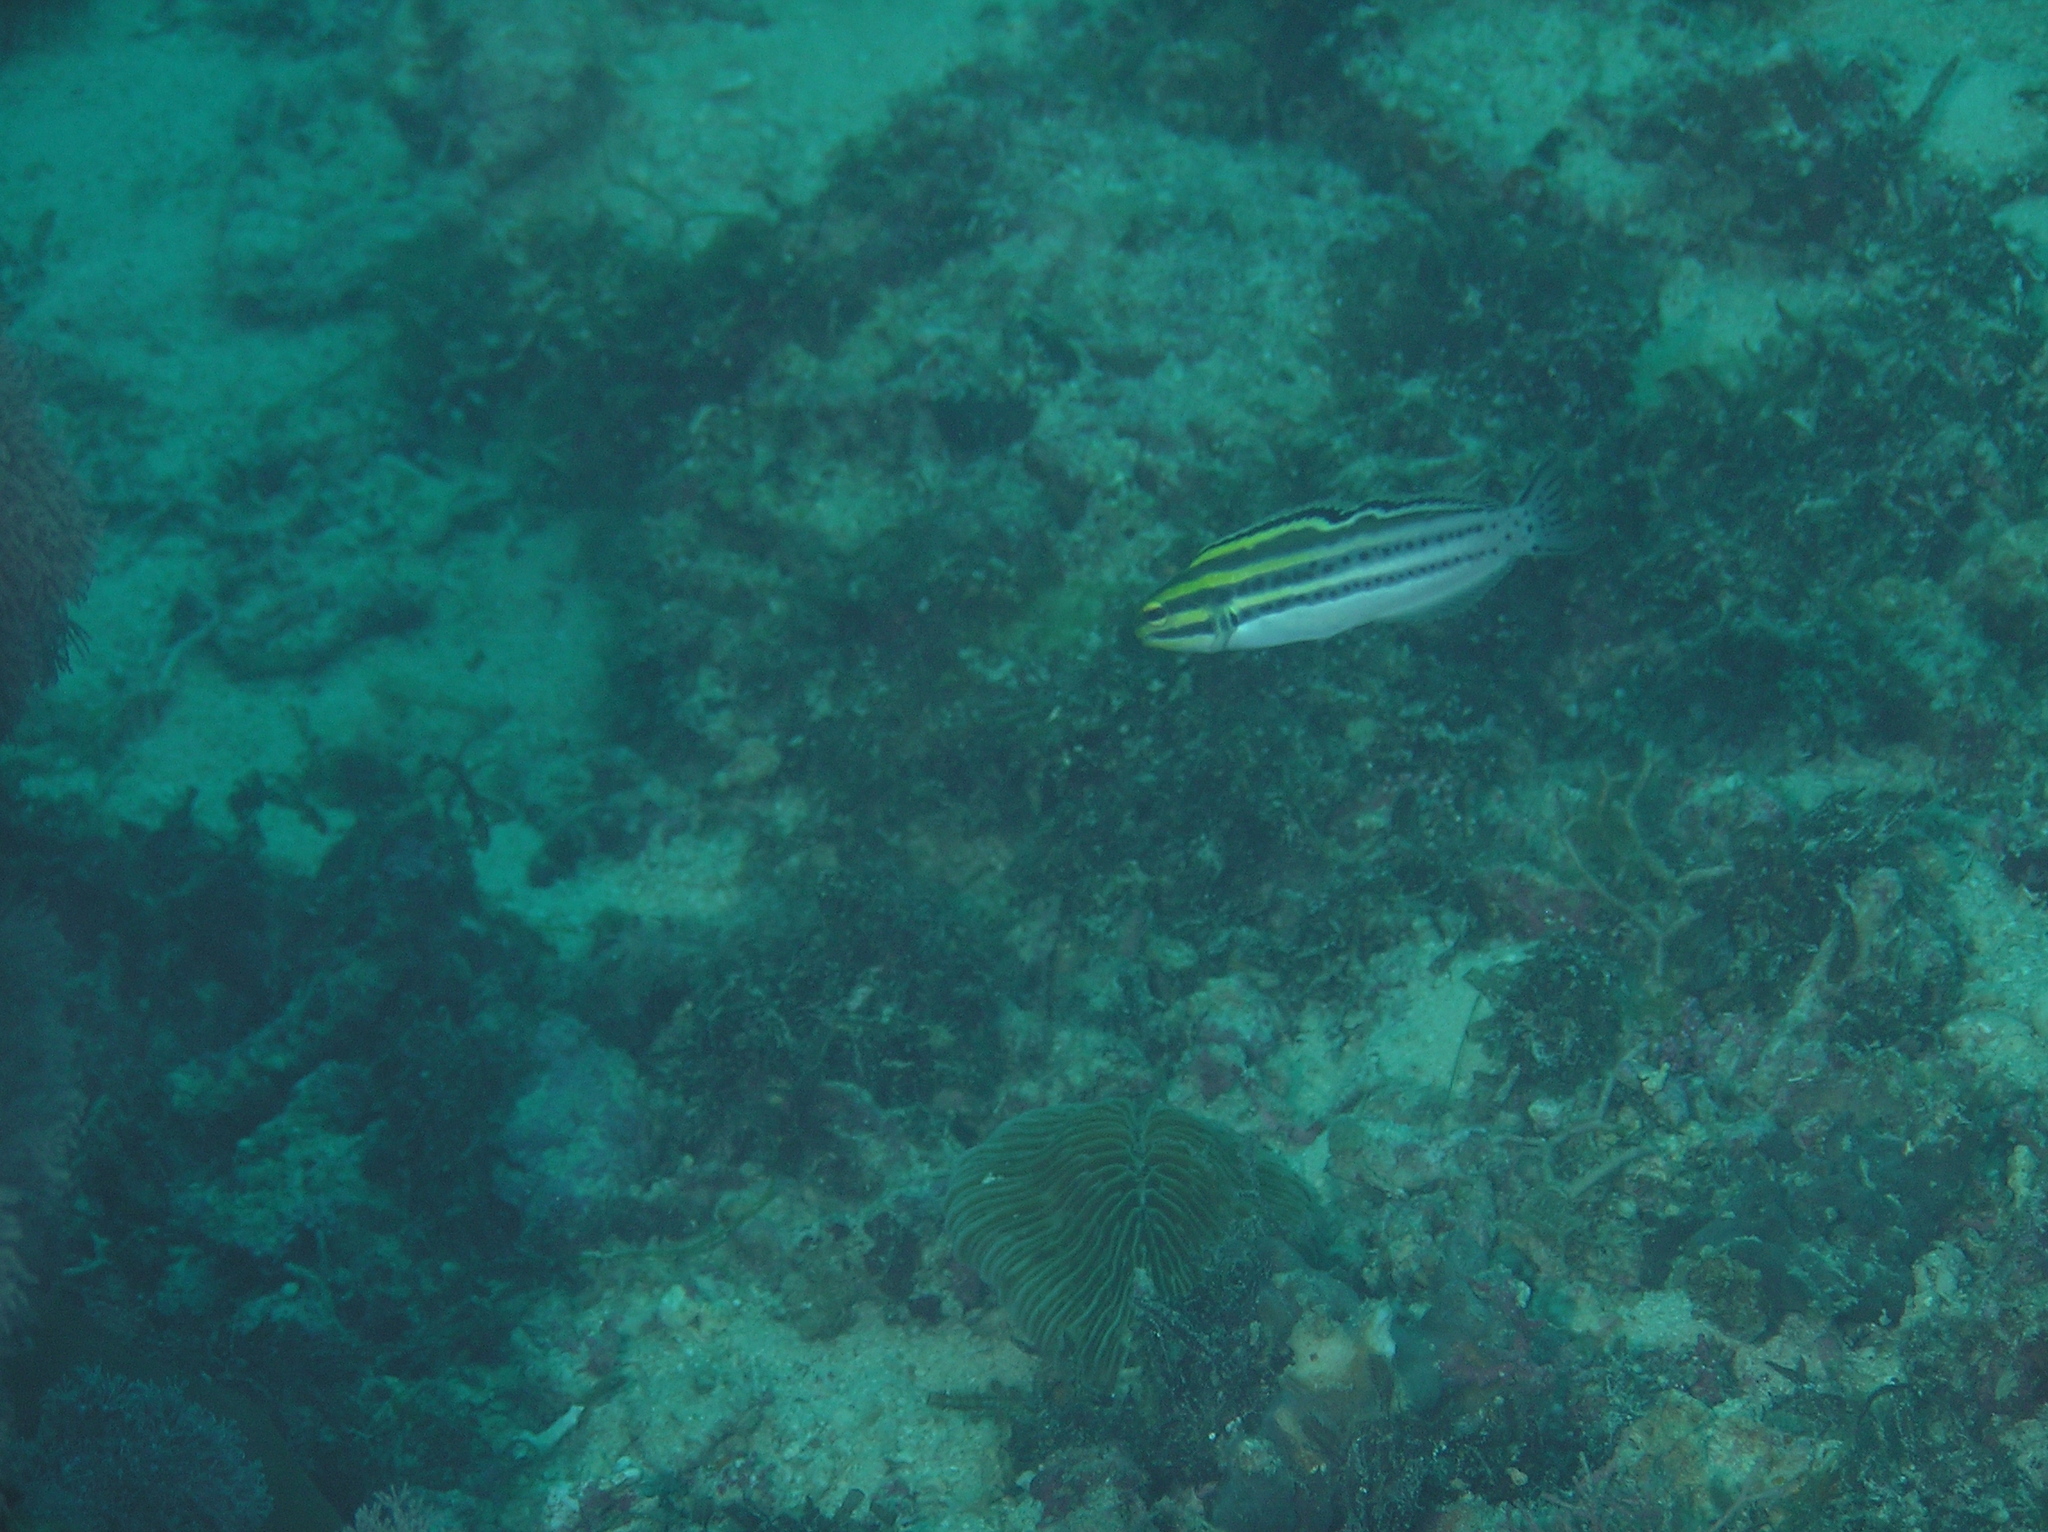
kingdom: Animalia
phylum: Chordata
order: Perciformes
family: Blenniidae
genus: Meiacanthus
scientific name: Meiacanthus grammistes
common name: Grammistes blenny
